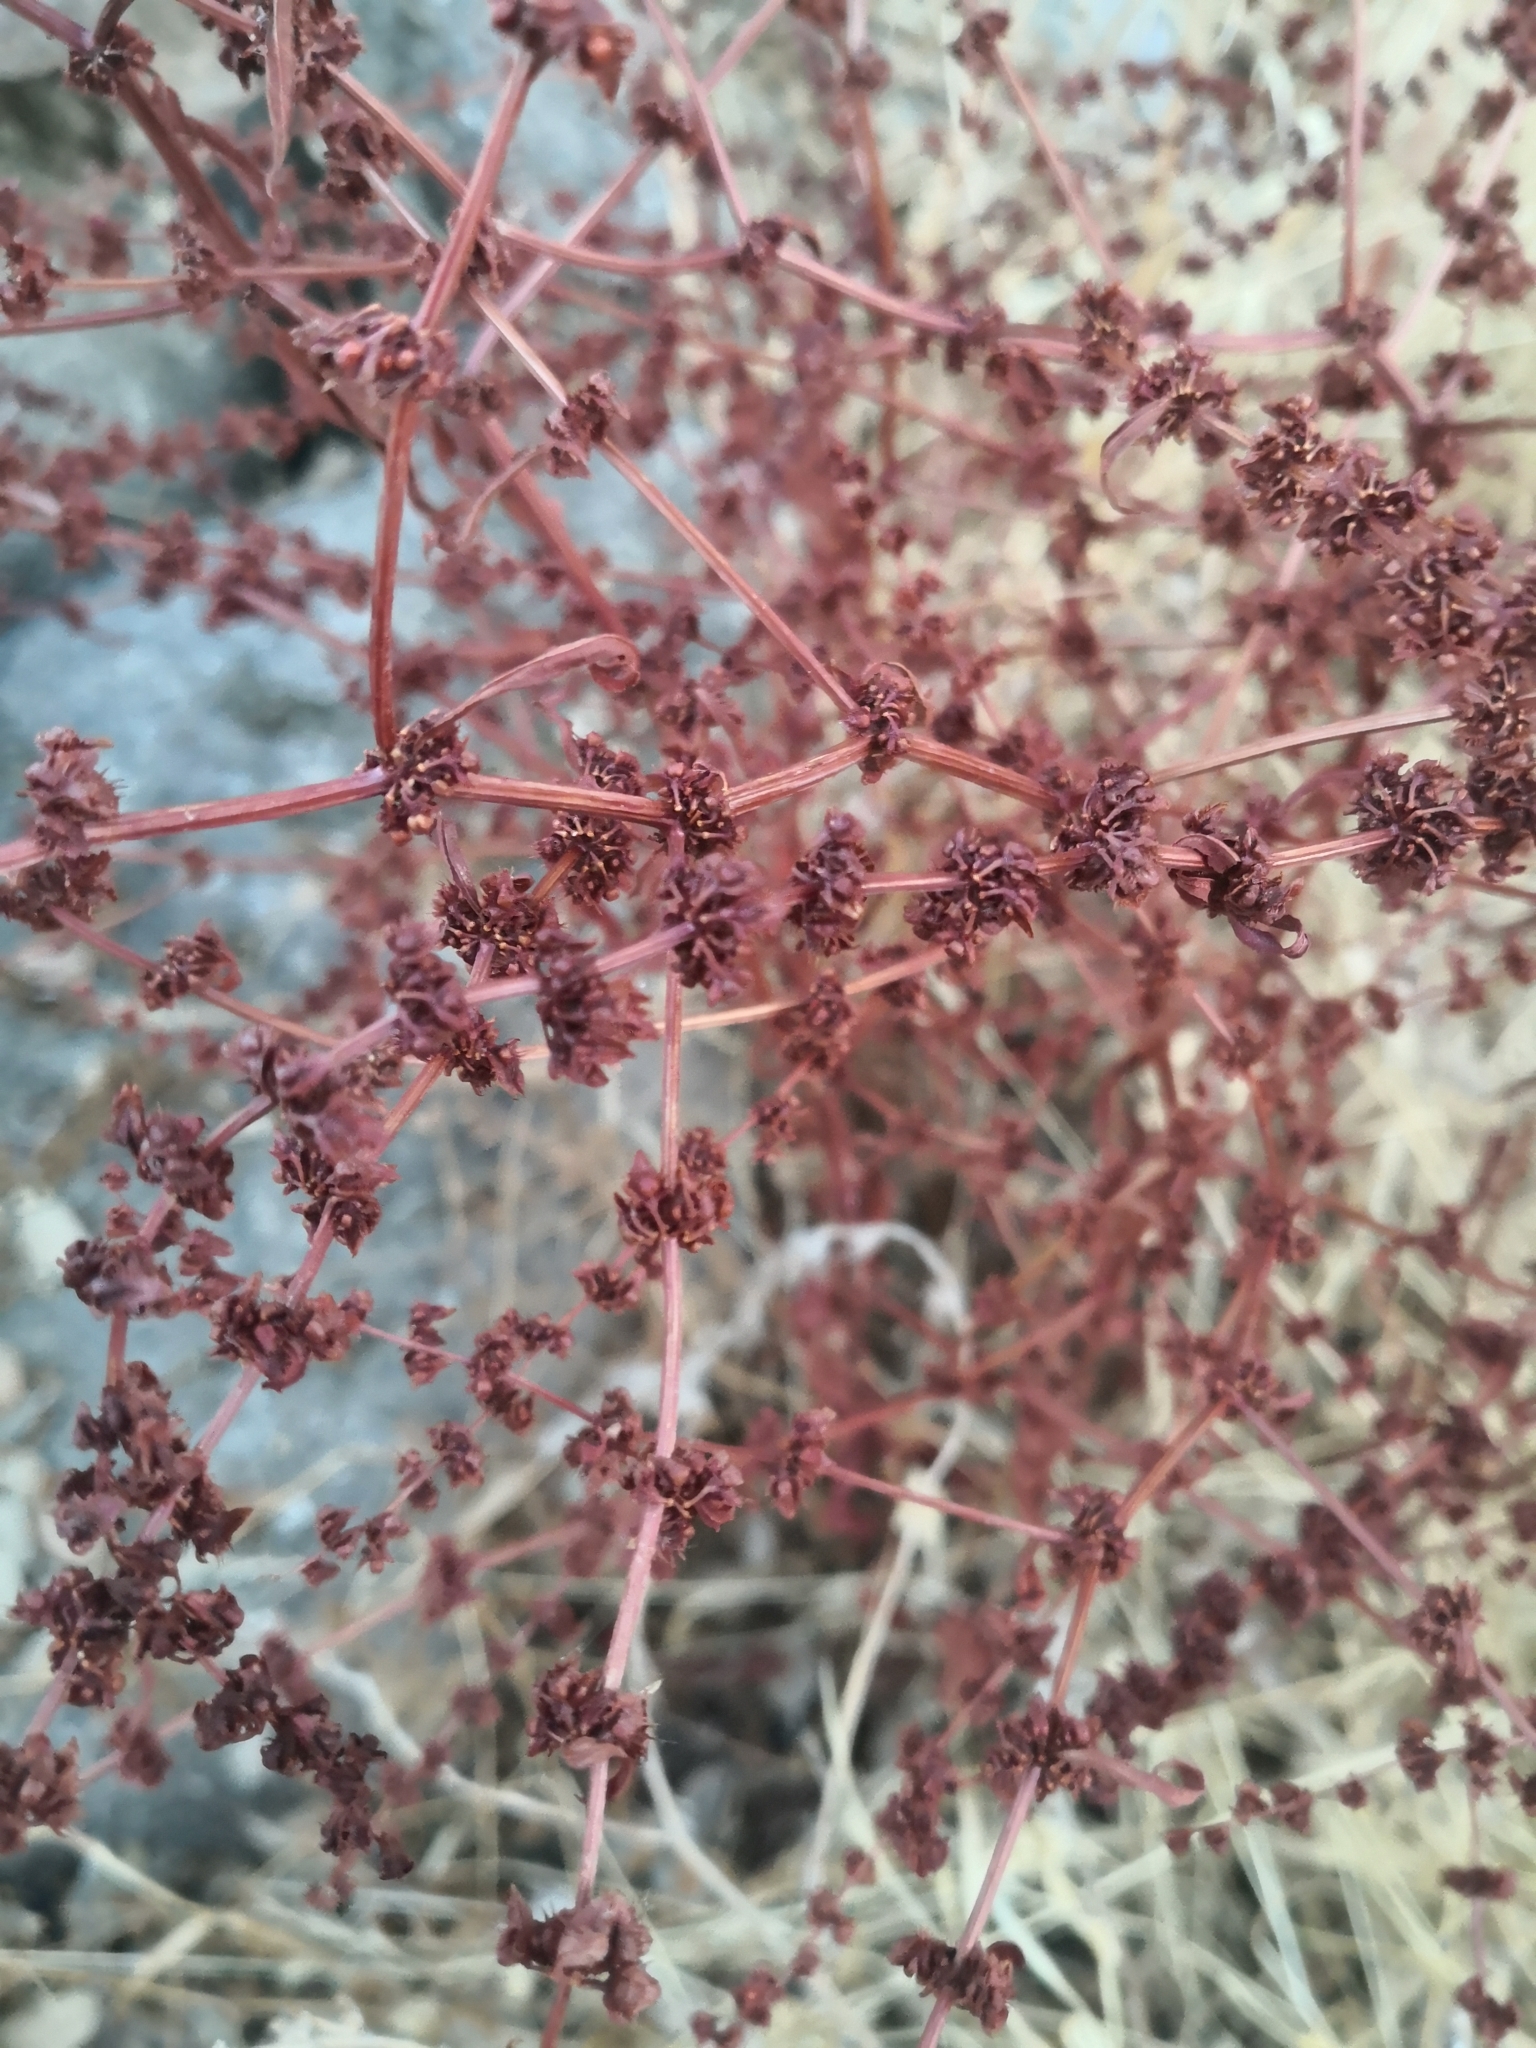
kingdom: Plantae
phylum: Tracheophyta
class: Magnoliopsida
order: Caryophyllales
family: Polygonaceae
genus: Rumex
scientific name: Rumex pulcher
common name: Fiddle dock
